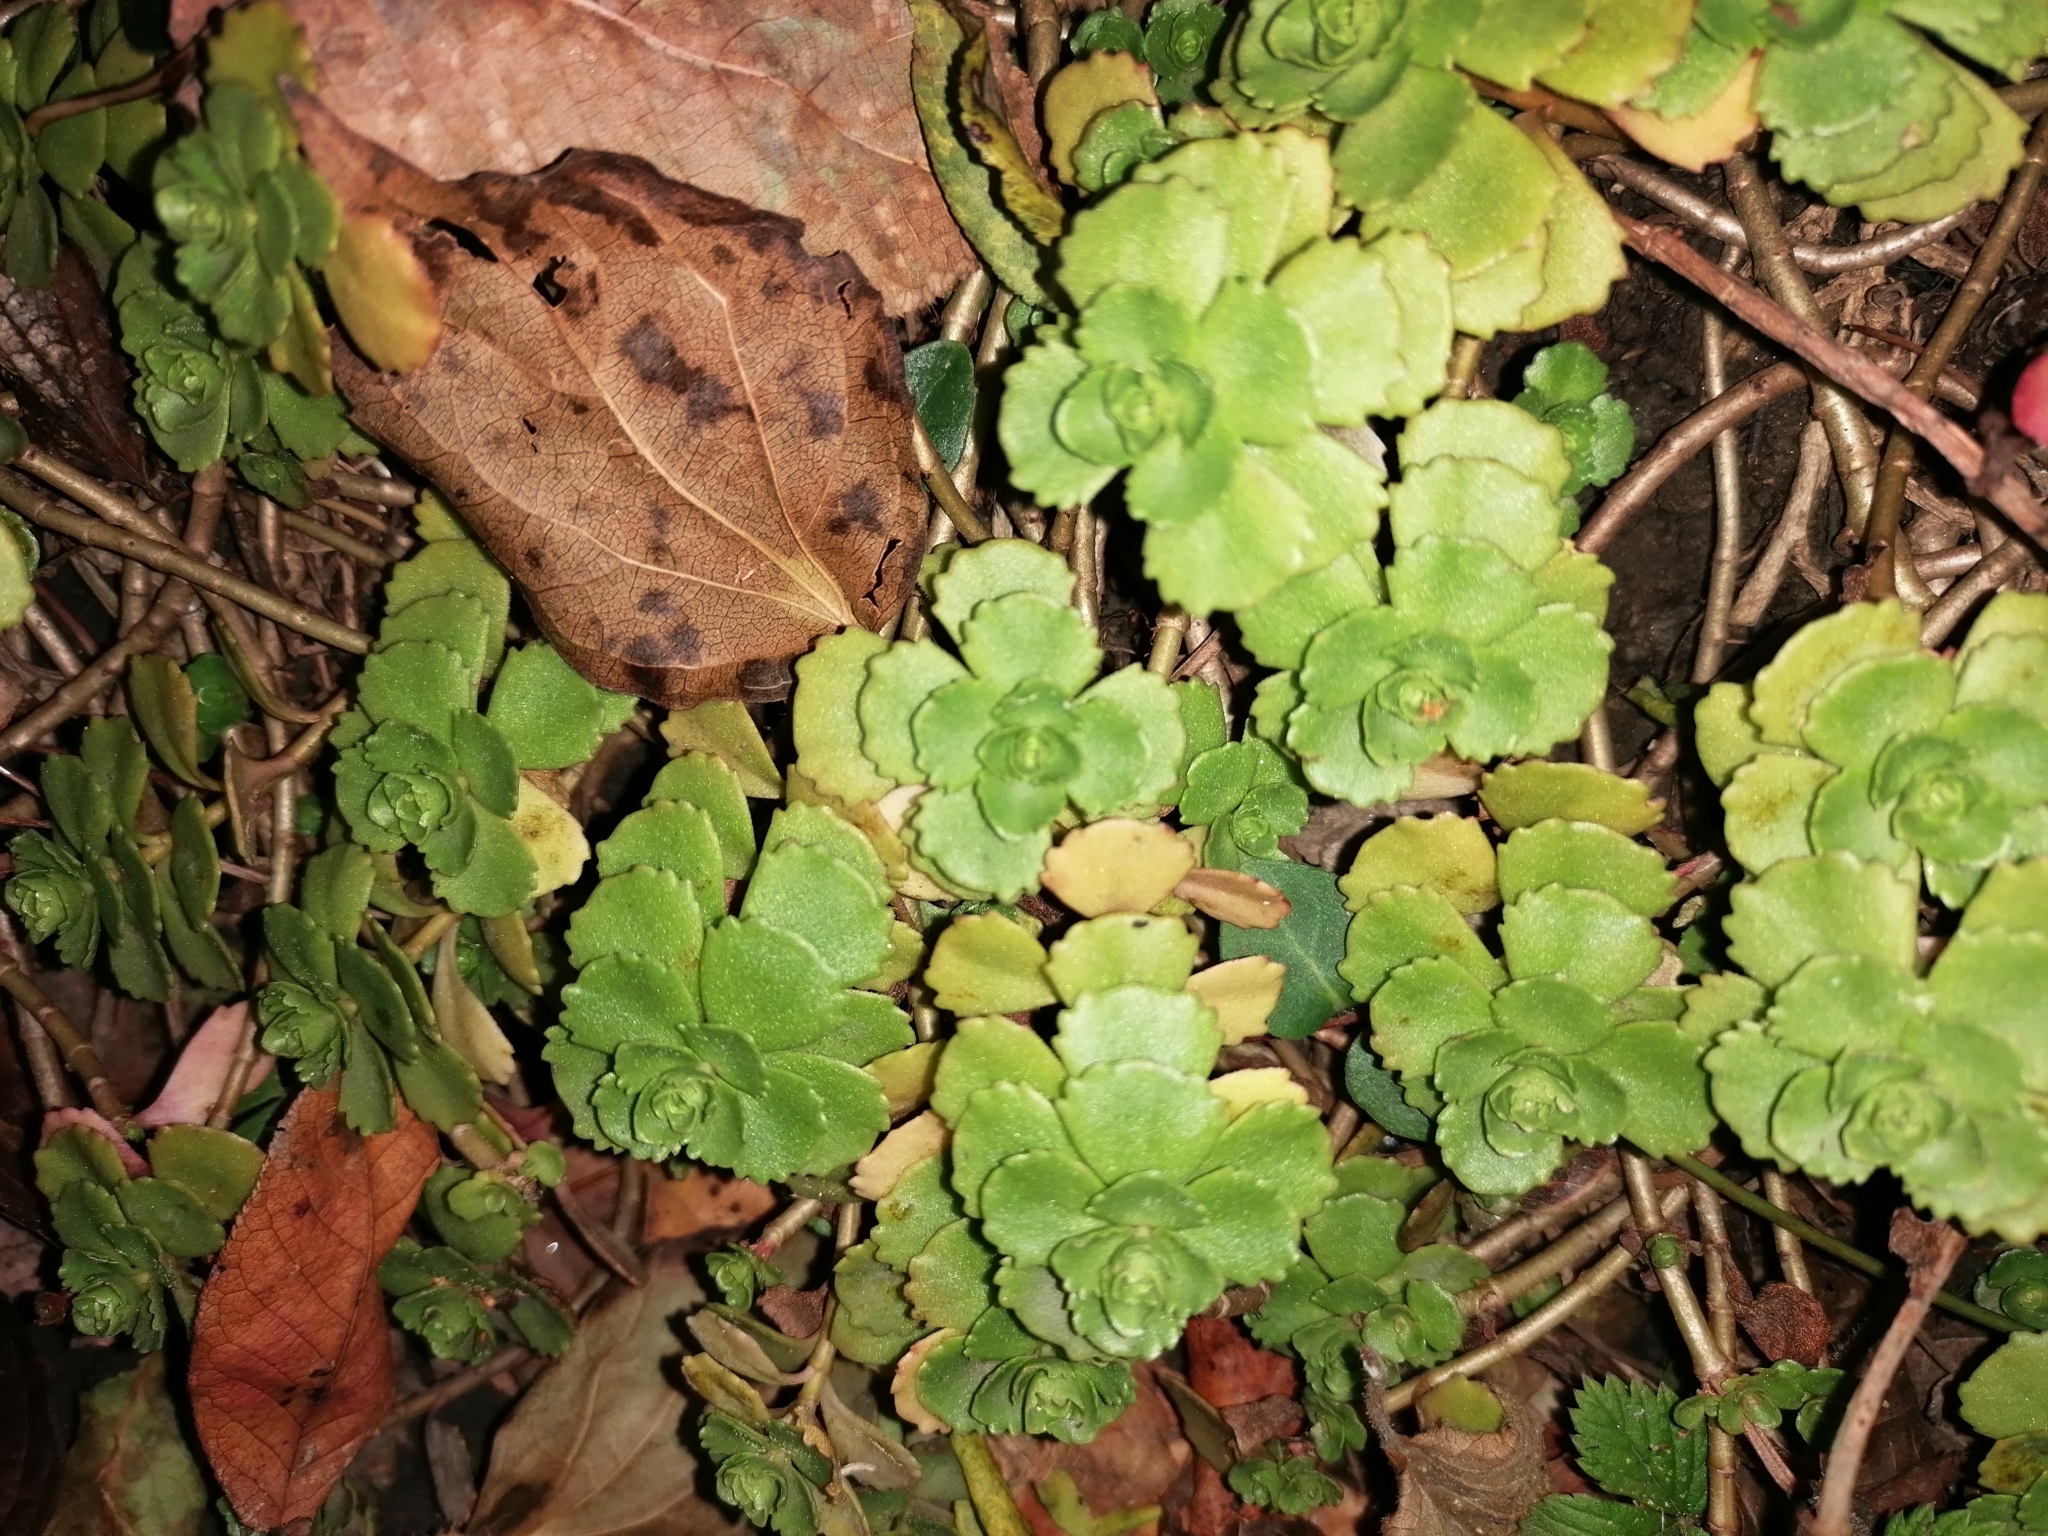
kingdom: Plantae
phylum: Tracheophyta
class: Magnoliopsida
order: Saxifragales
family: Crassulaceae
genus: Phedimus
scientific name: Phedimus spurius
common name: Caucasian stonecrop
